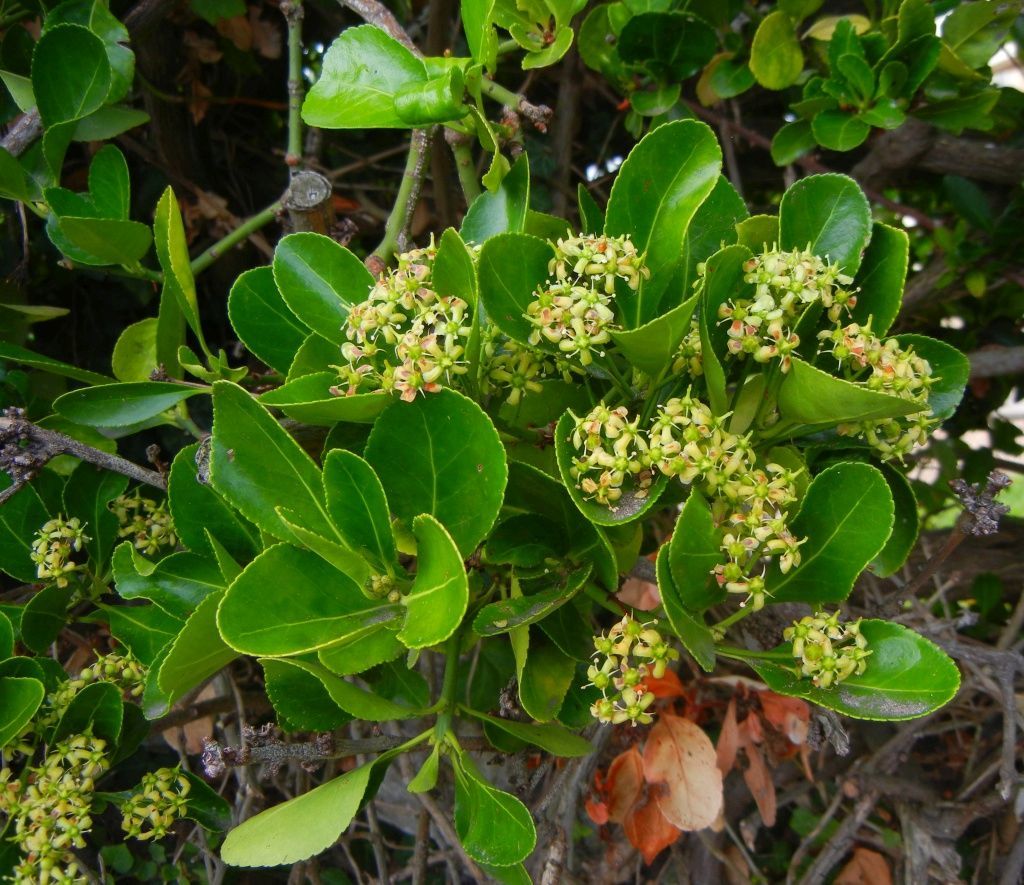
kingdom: Plantae
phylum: Tracheophyta
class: Magnoliopsida
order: Celastrales
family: Celastraceae
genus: Euonymus
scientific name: Euonymus japonicus
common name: Japanese spindletree
